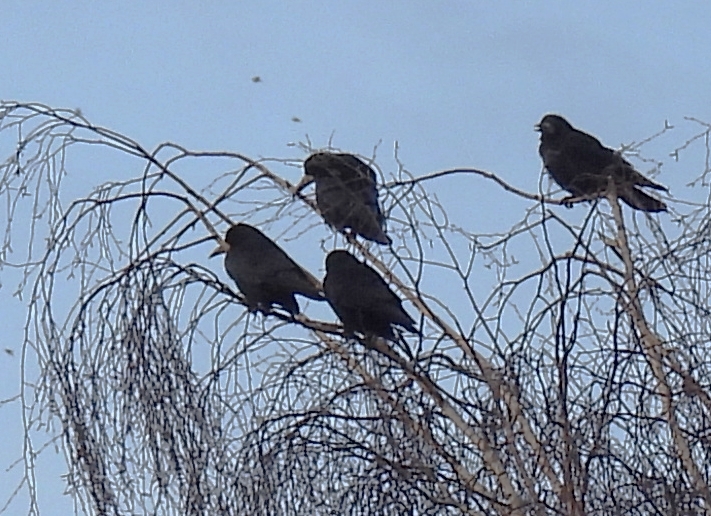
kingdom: Animalia
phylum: Chordata
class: Aves
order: Passeriformes
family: Corvidae
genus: Corvus
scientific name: Corvus frugilegus
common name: Rook
